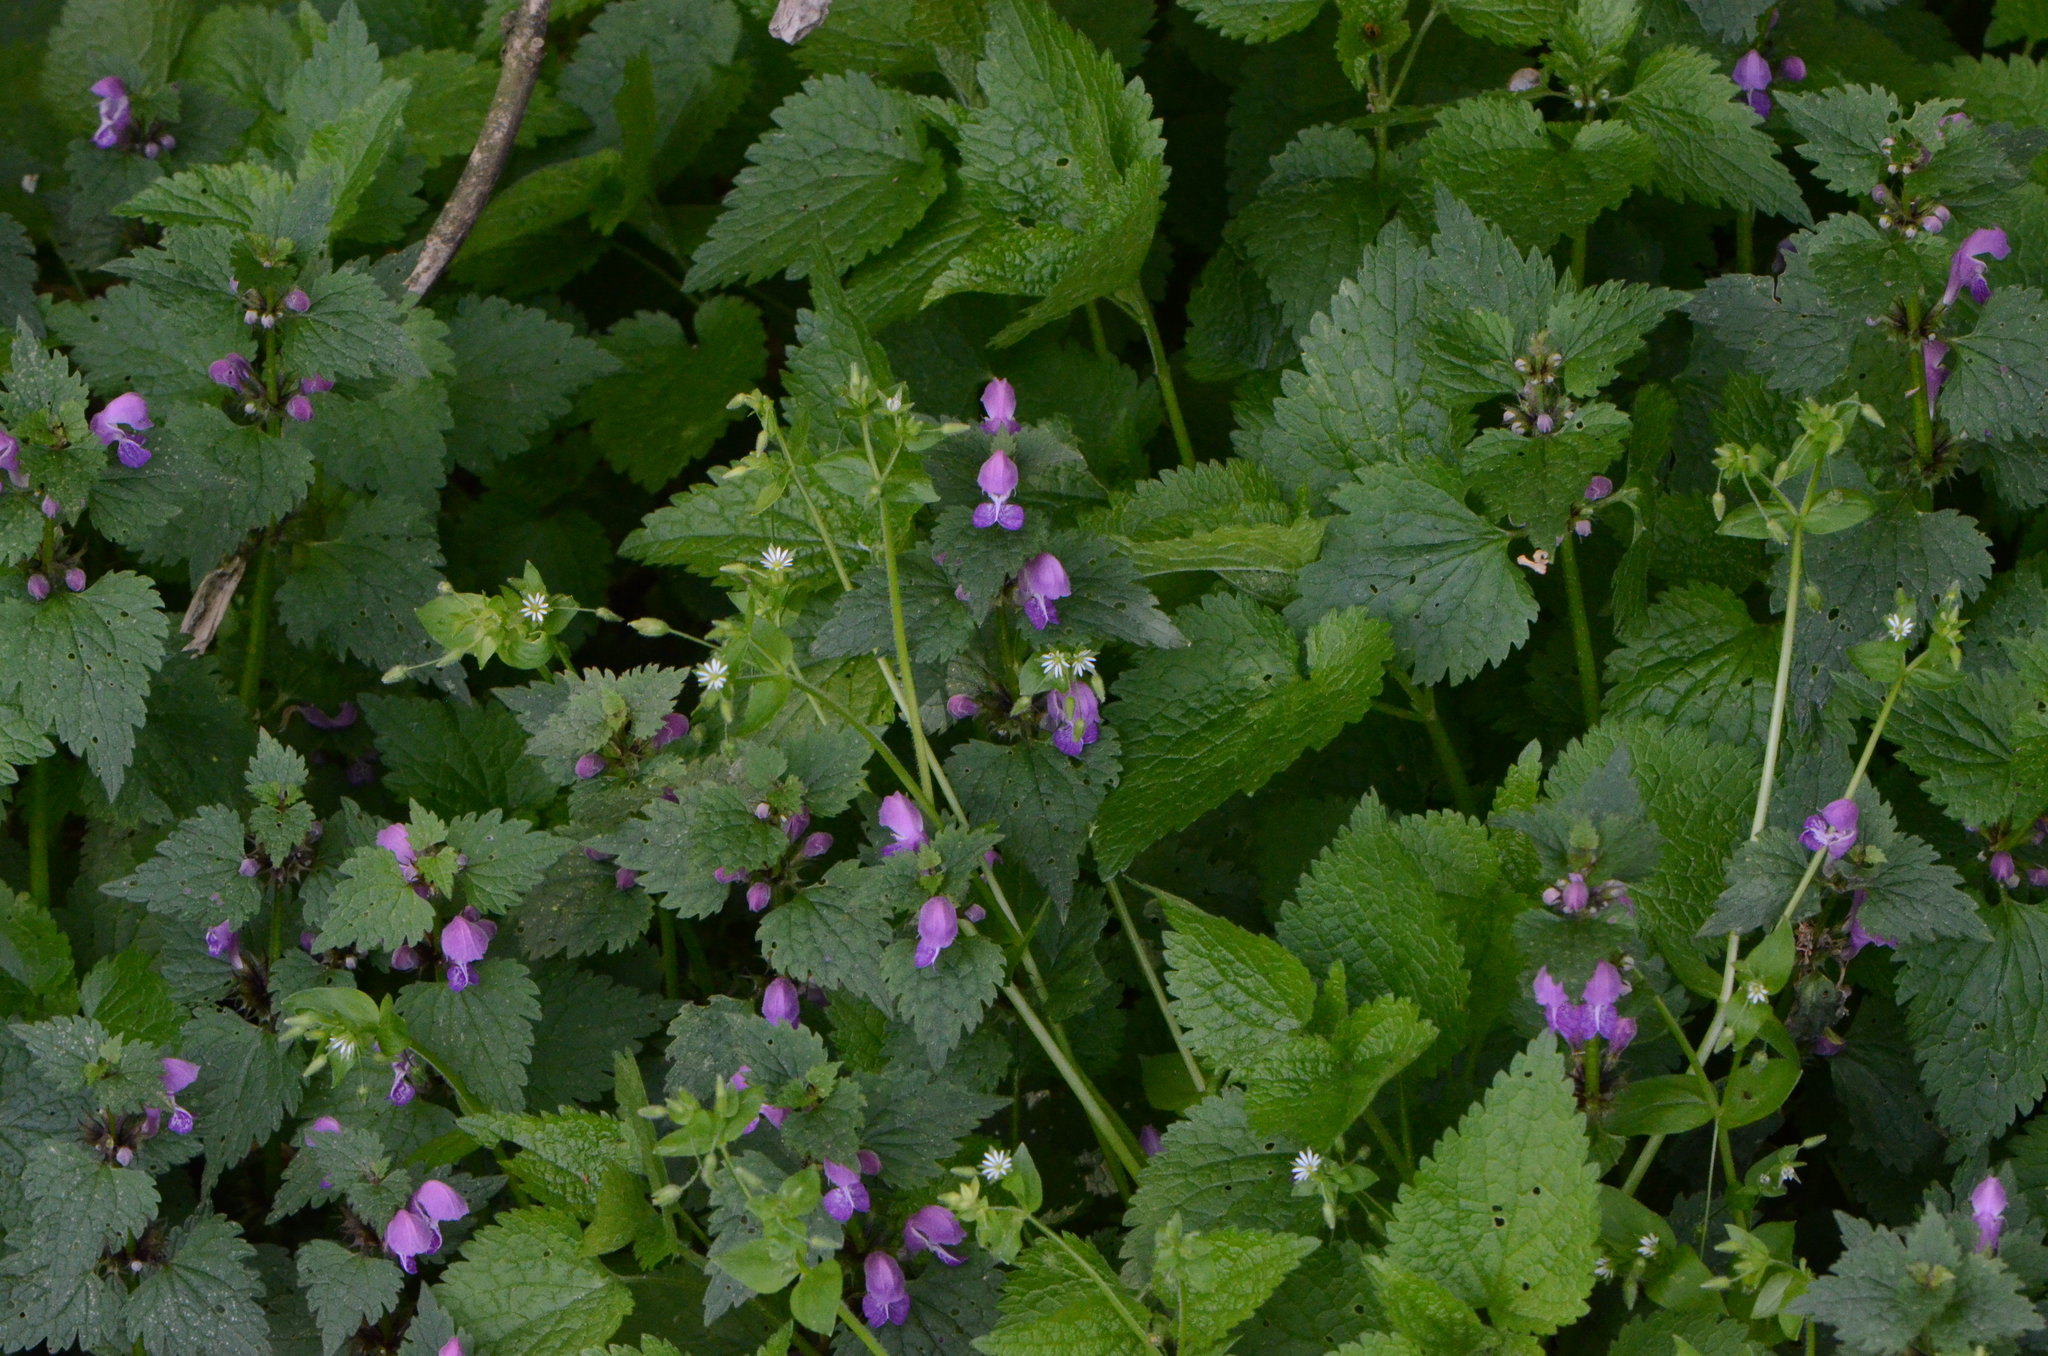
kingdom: Plantae
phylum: Tracheophyta
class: Magnoliopsida
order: Lamiales
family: Lamiaceae
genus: Lamium
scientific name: Lamium maculatum
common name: Spotted dead-nettle
